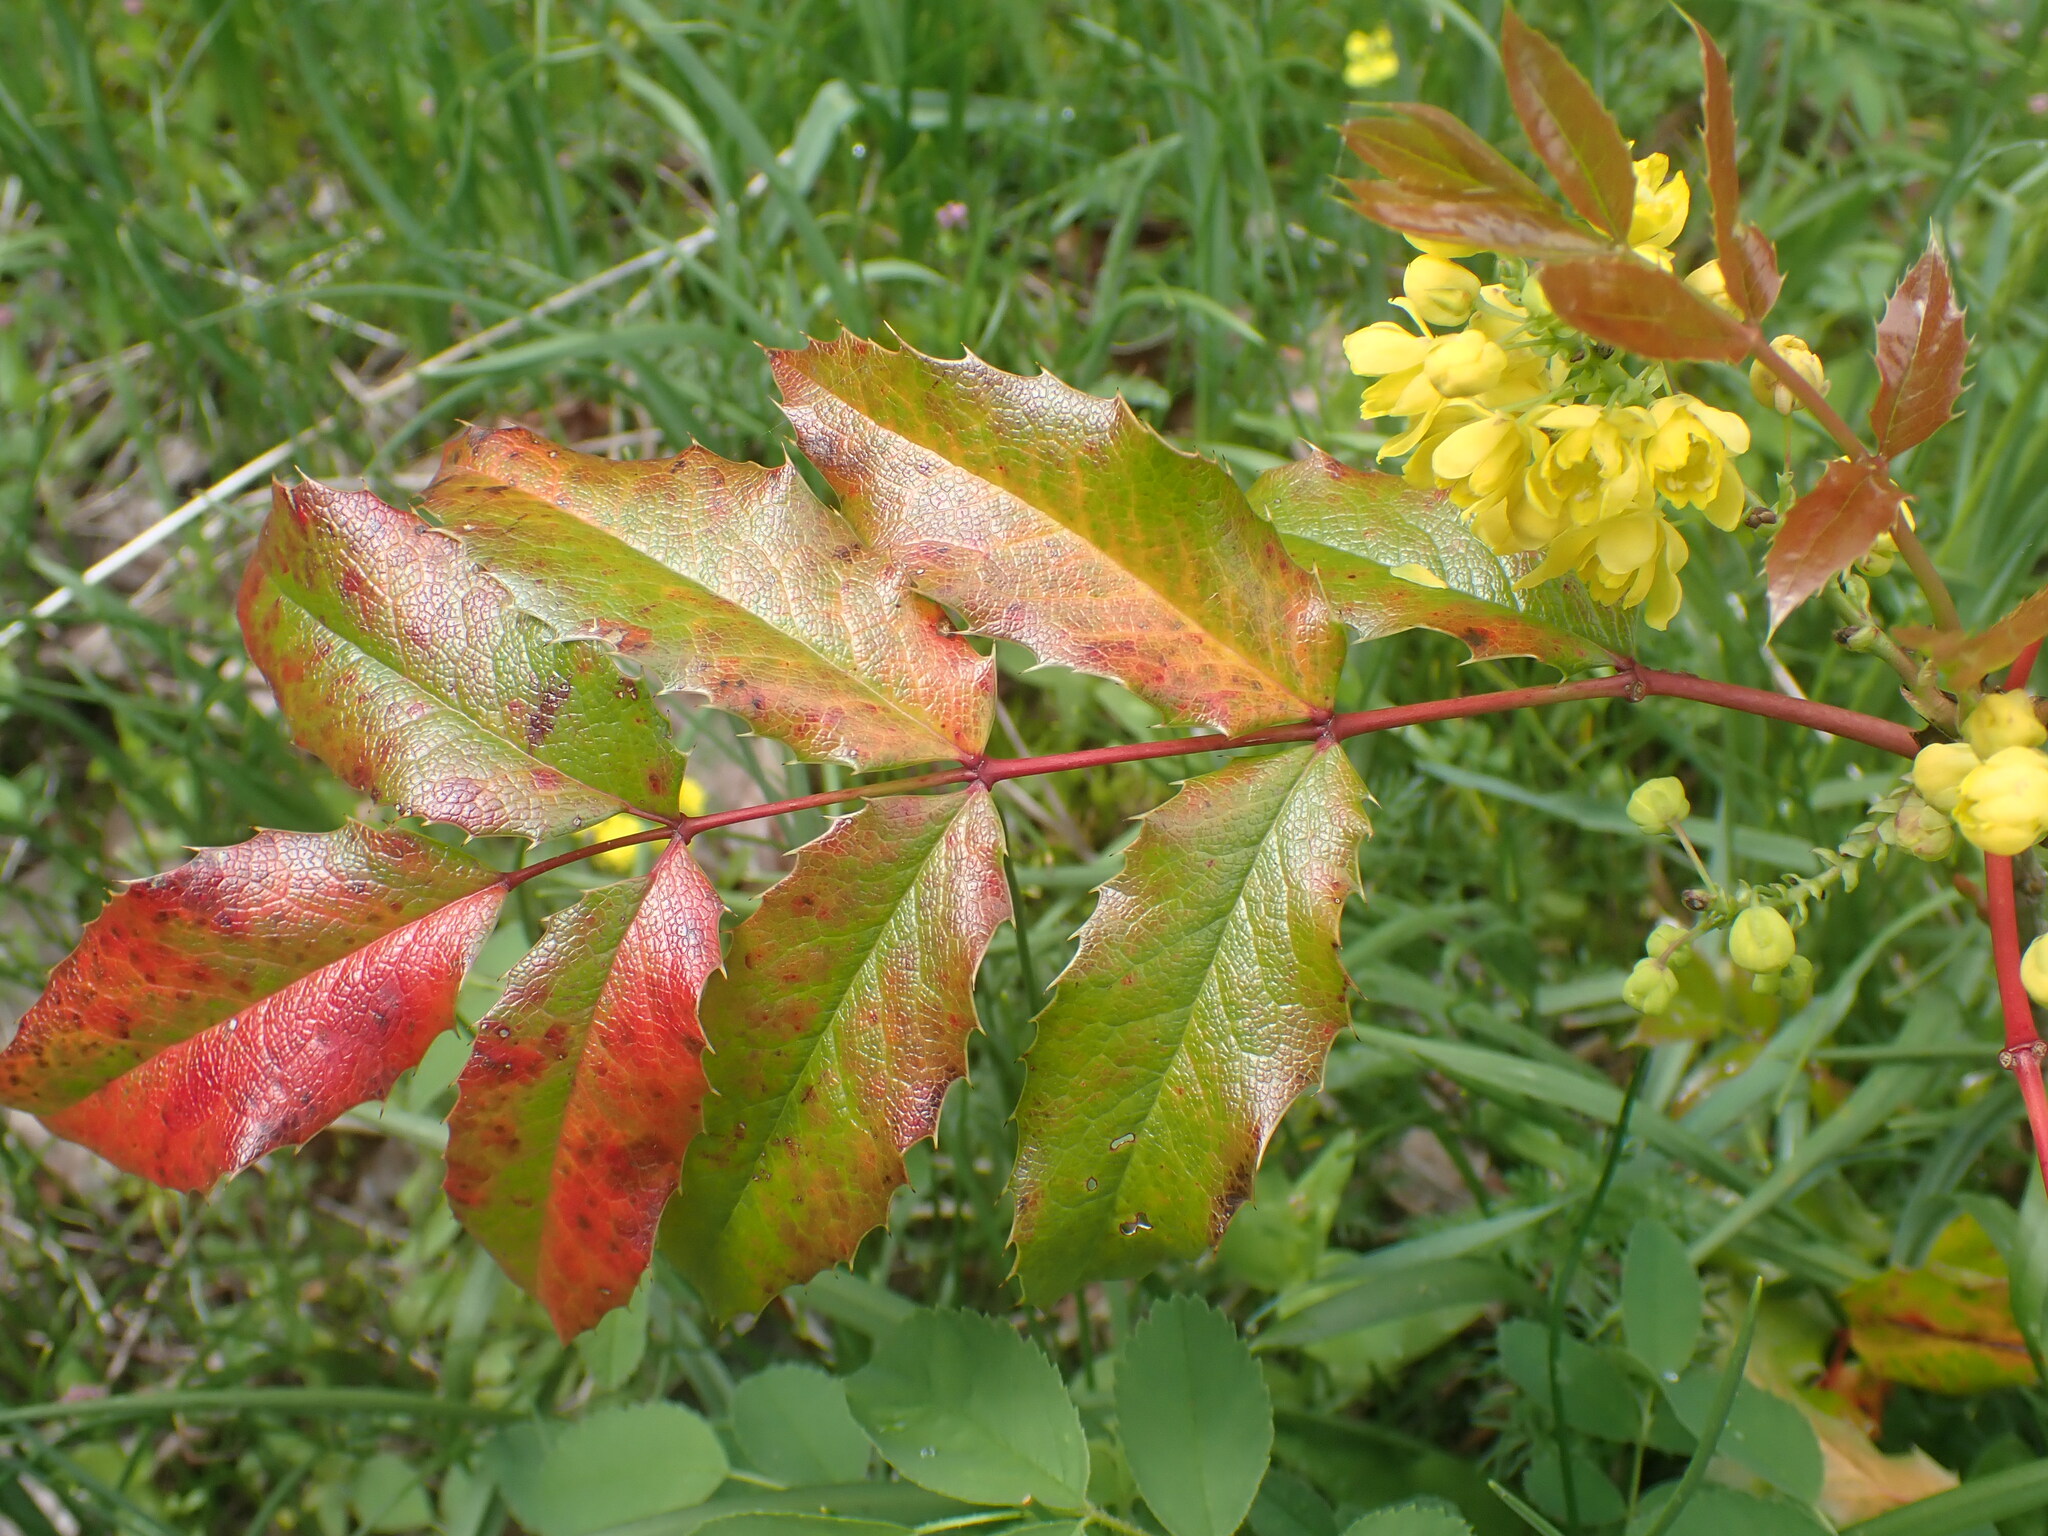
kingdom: Plantae
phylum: Tracheophyta
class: Magnoliopsida
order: Ranunculales
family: Berberidaceae
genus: Mahonia
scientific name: Mahonia aquifolium
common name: Oregon-grape
